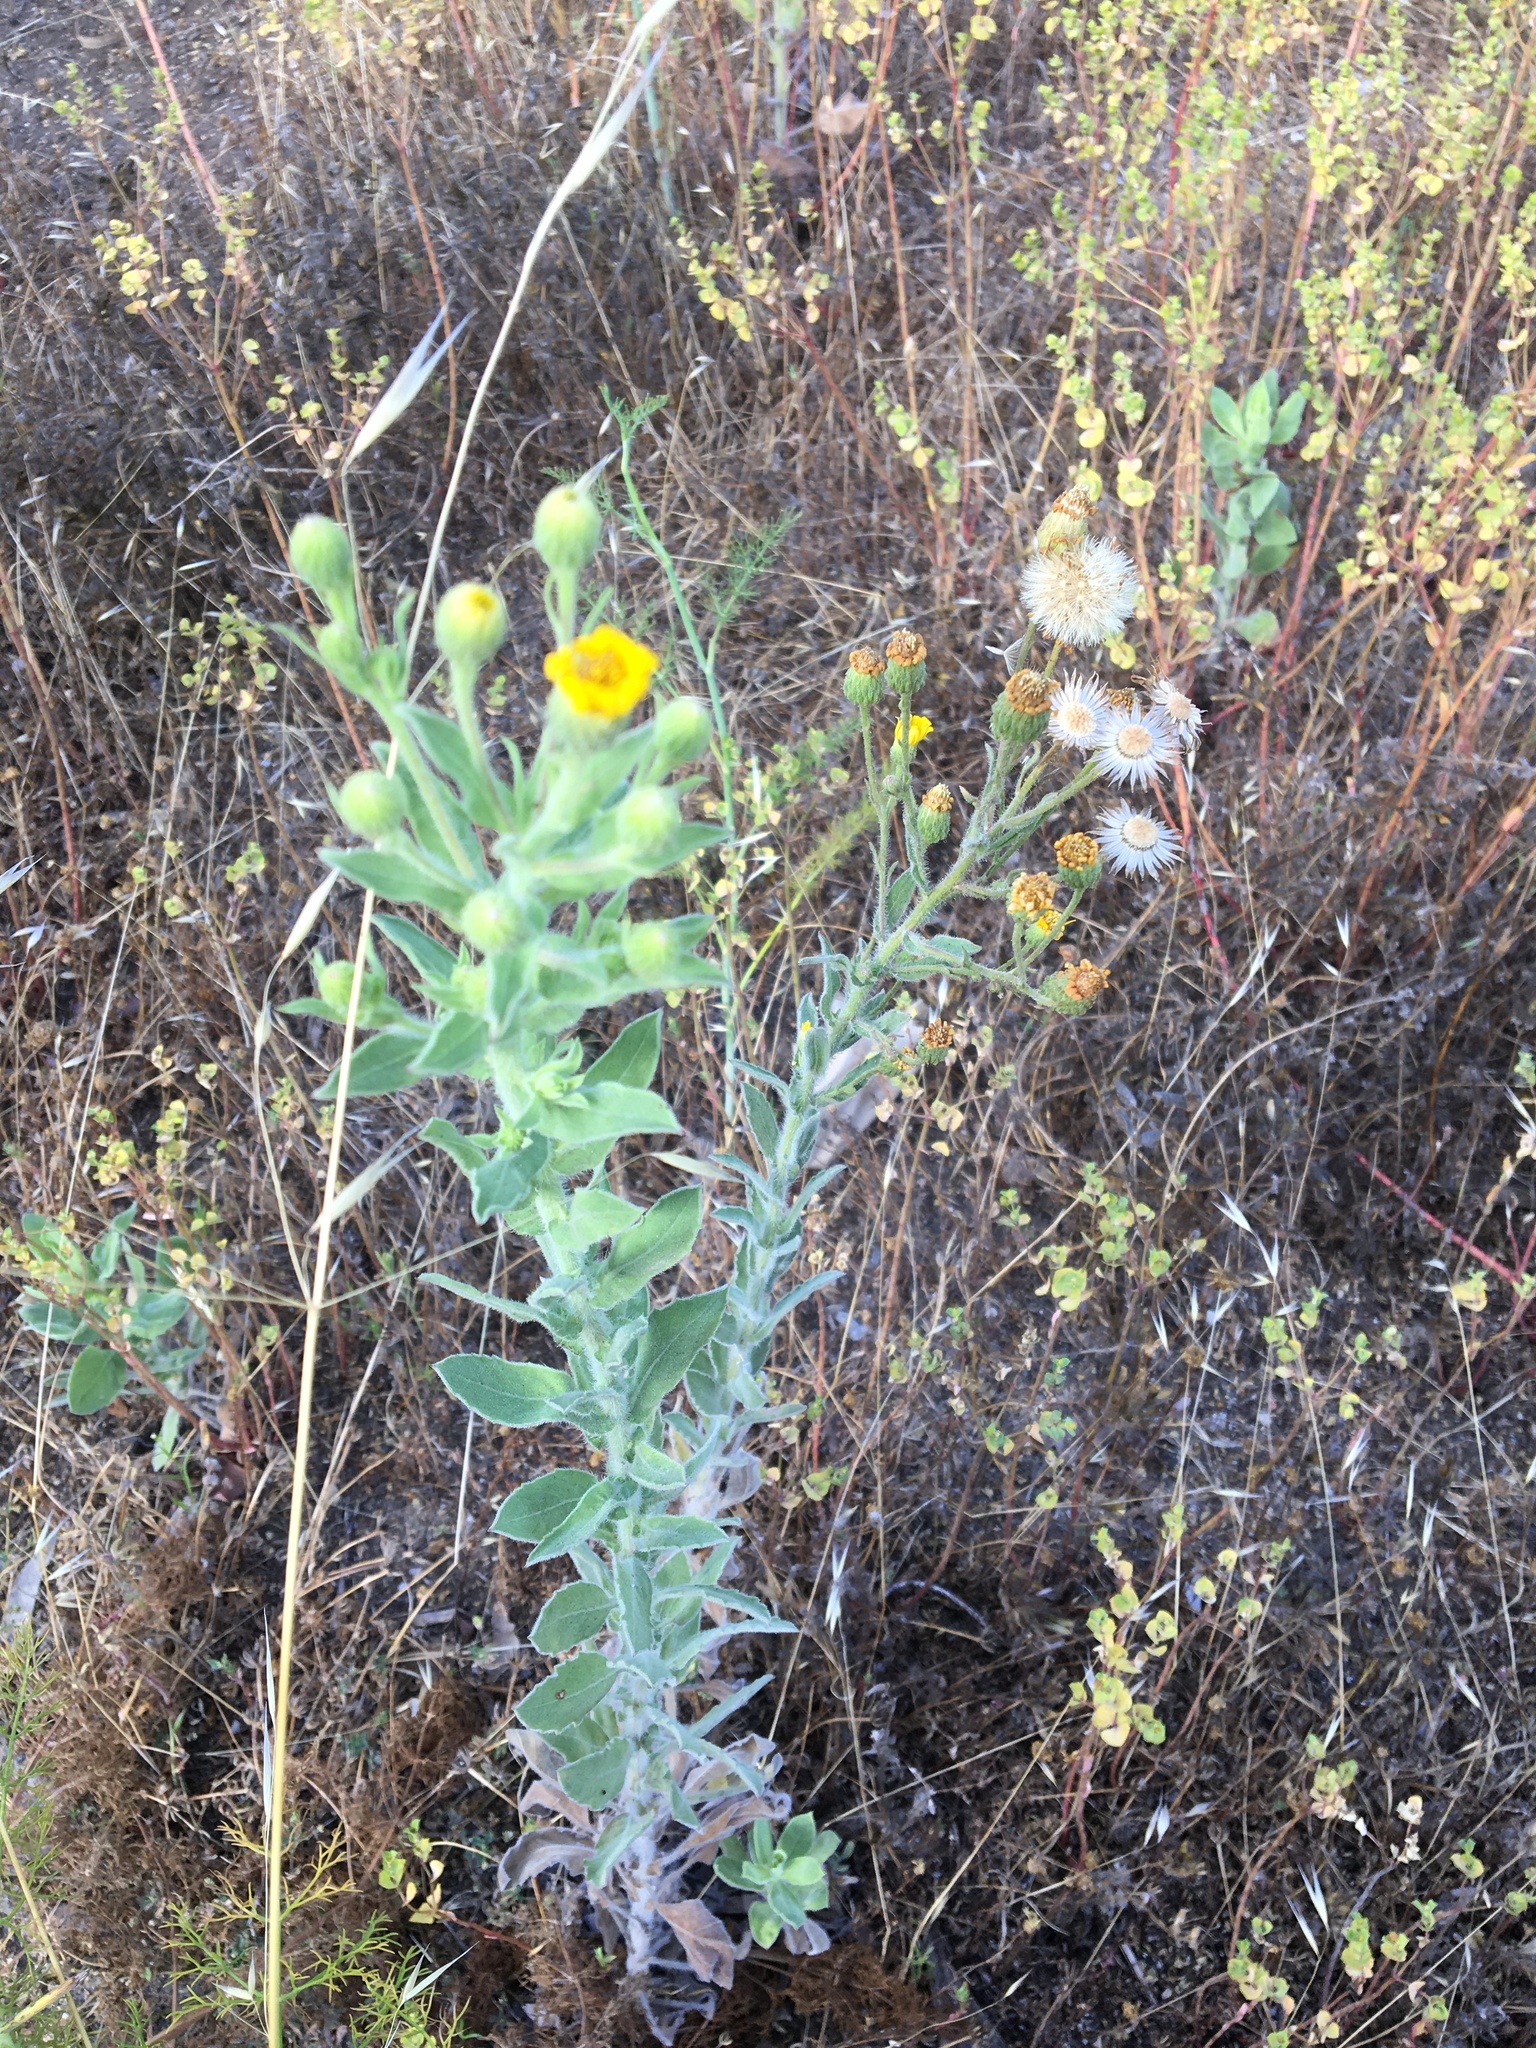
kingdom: Plantae
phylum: Tracheophyta
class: Magnoliopsida
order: Asterales
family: Asteraceae
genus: Heterotheca
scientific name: Heterotheca grandiflora
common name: Telegraphweed
